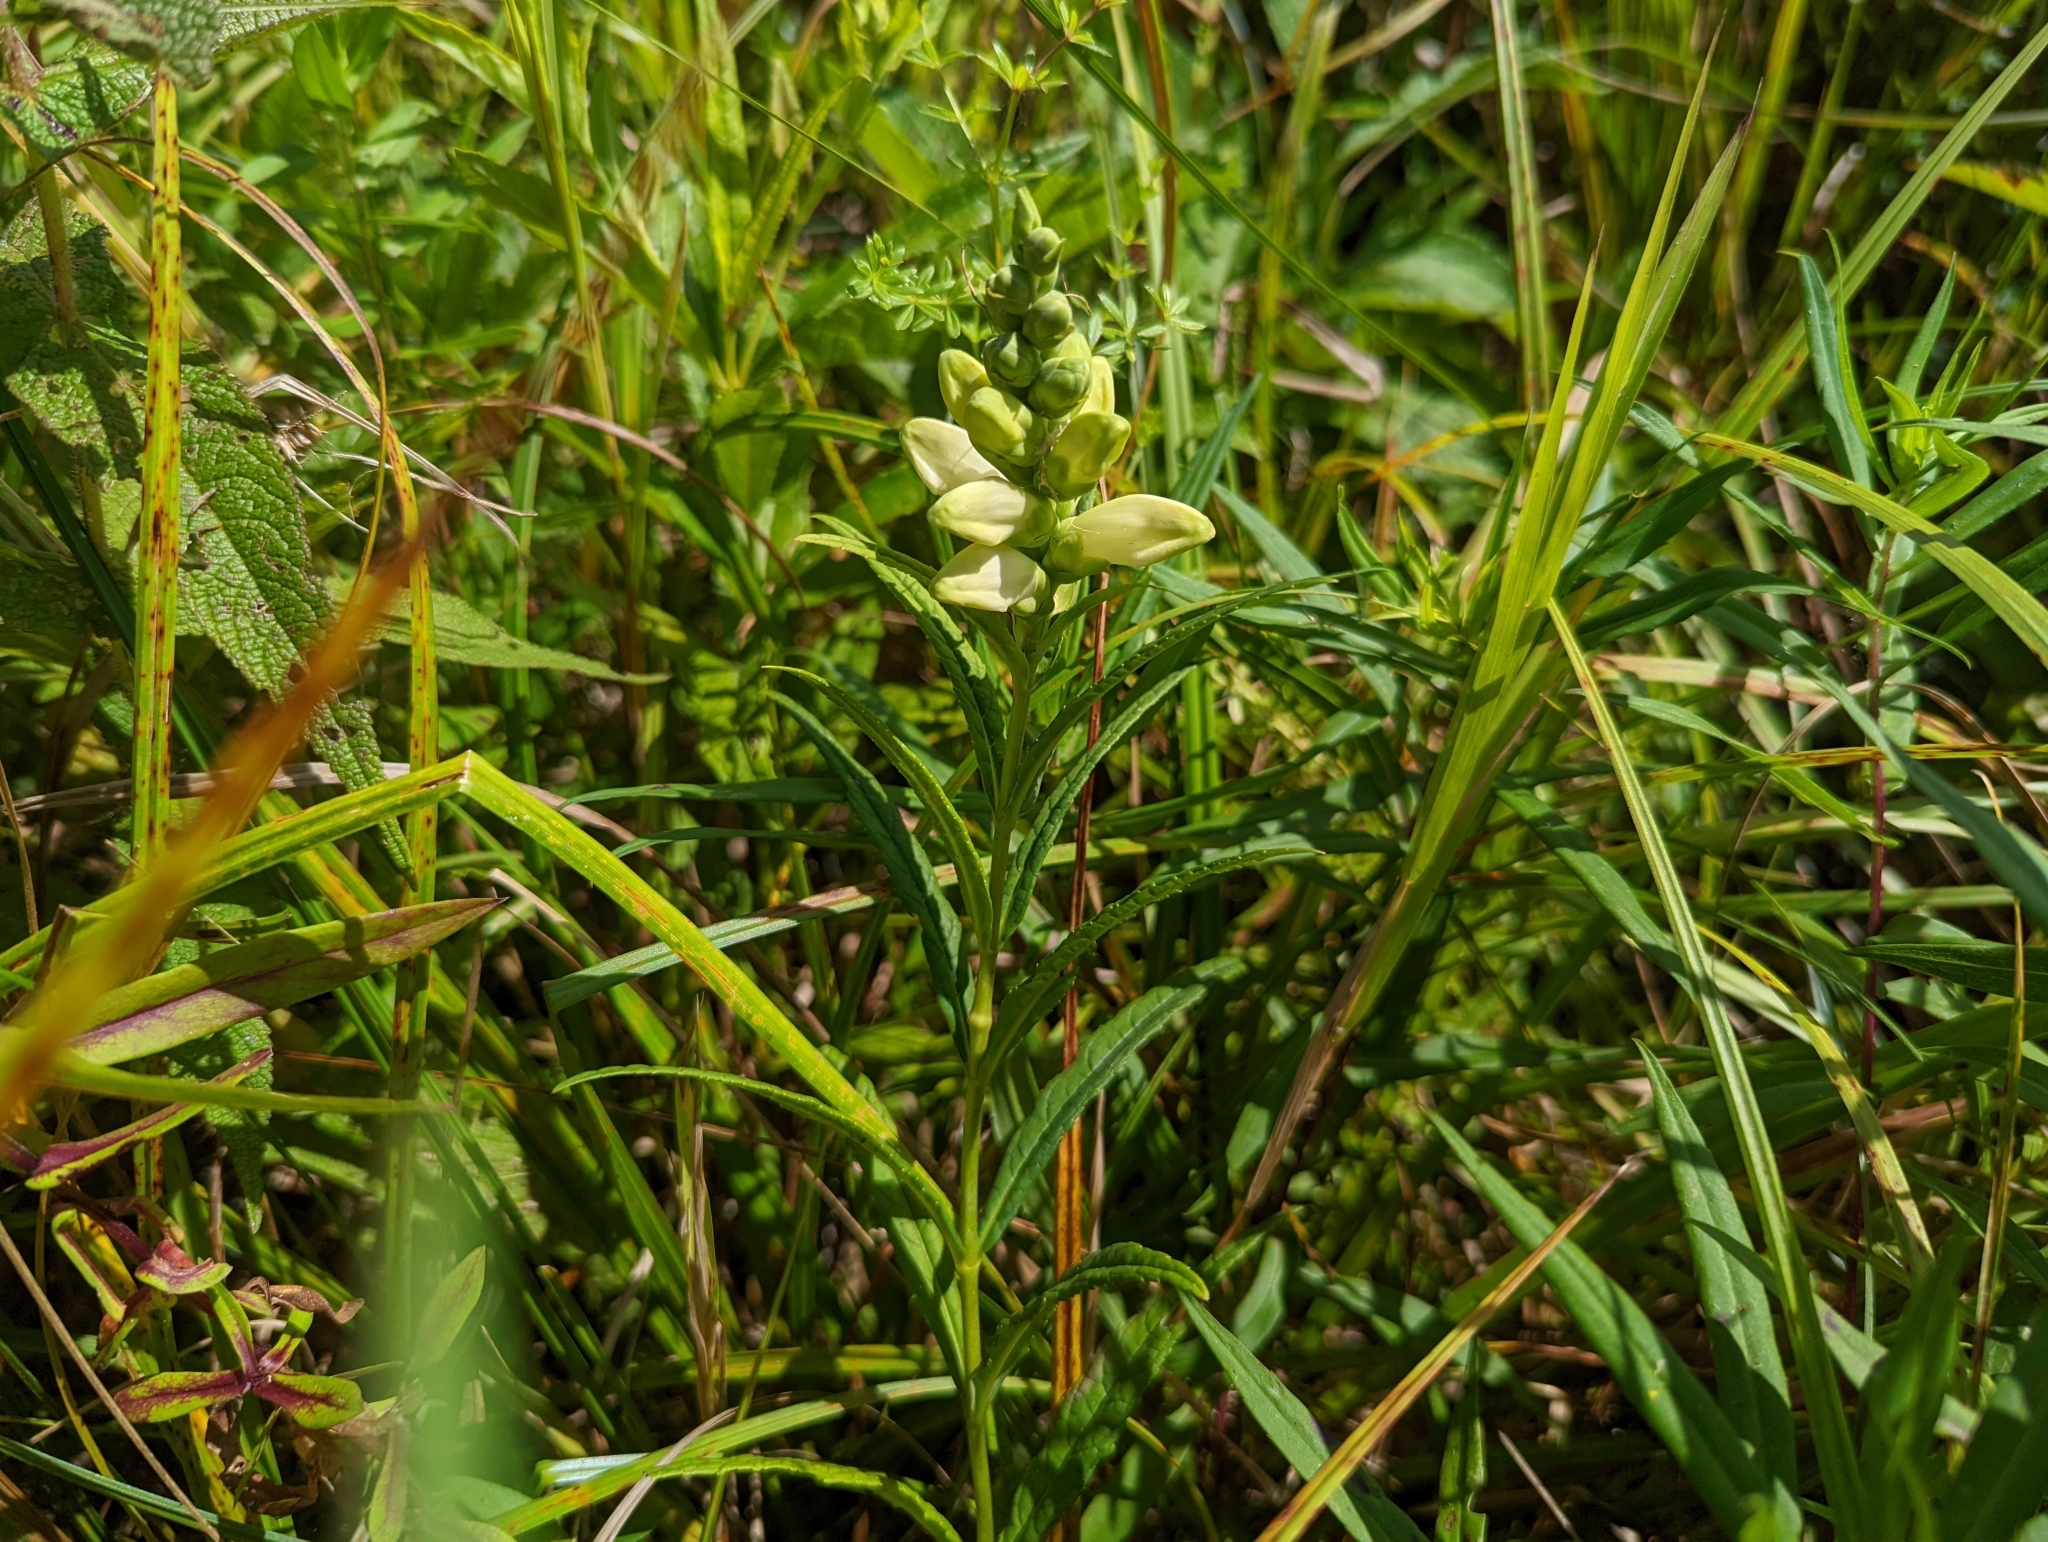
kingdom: Plantae
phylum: Tracheophyta
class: Magnoliopsida
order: Lamiales
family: Plantaginaceae
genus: Chelone
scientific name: Chelone glabra
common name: Snakehead
